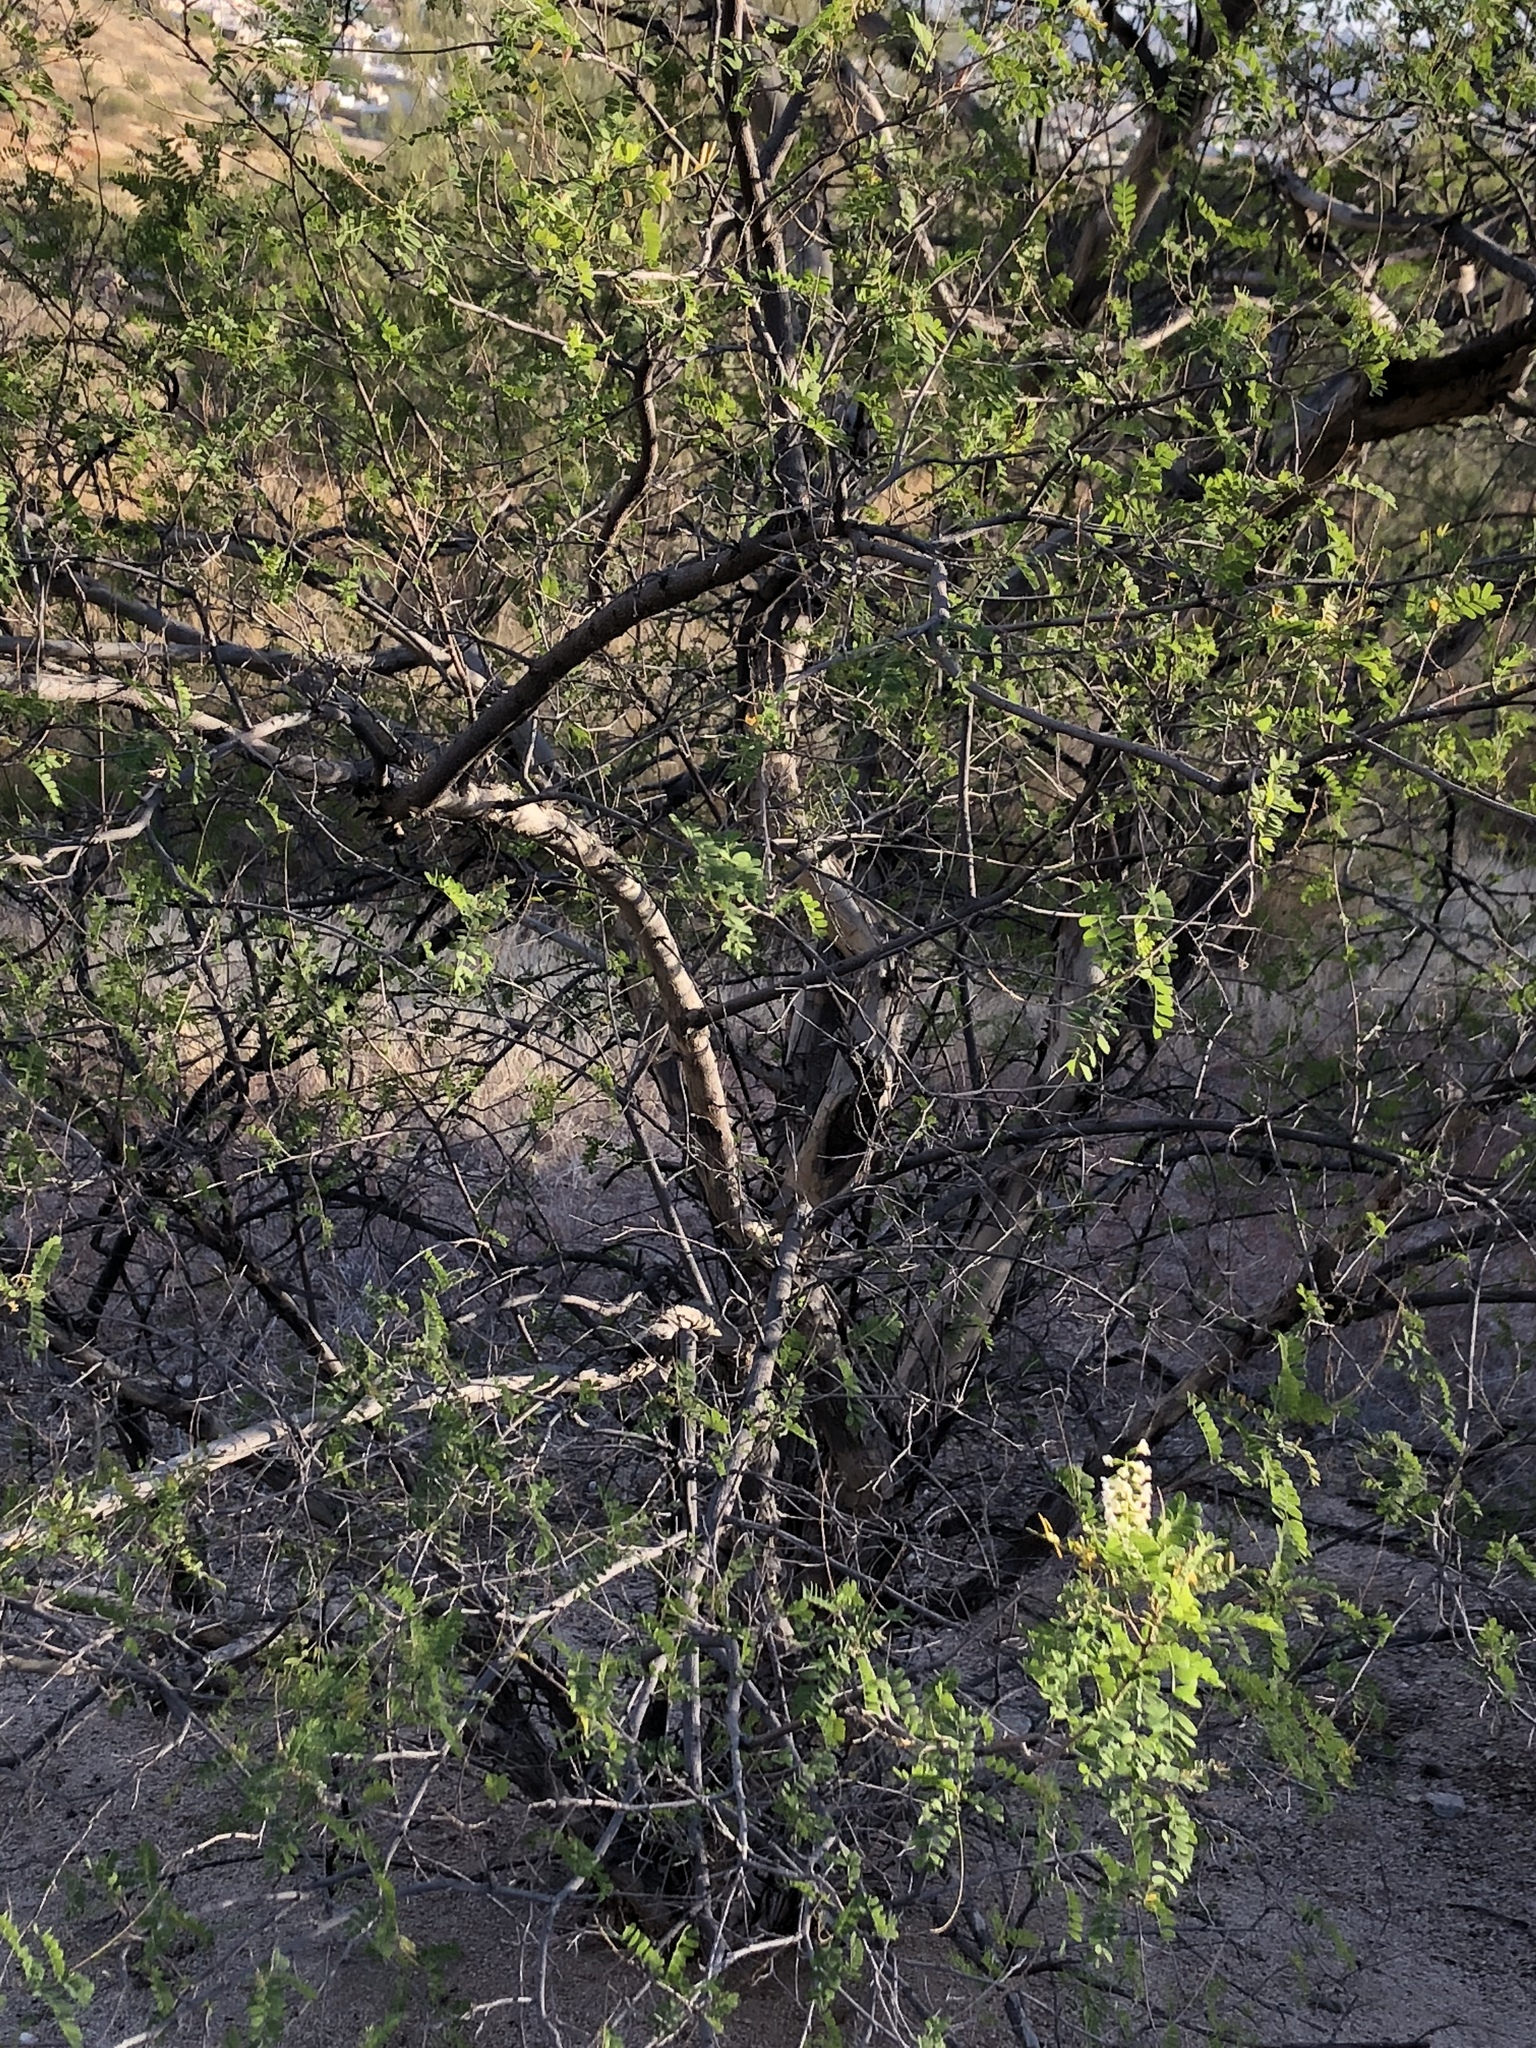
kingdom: Plantae
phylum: Tracheophyta
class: Magnoliopsida
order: Fabales
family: Fabaceae
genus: Eysenhardtia
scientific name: Eysenhardtia orthocarpa
